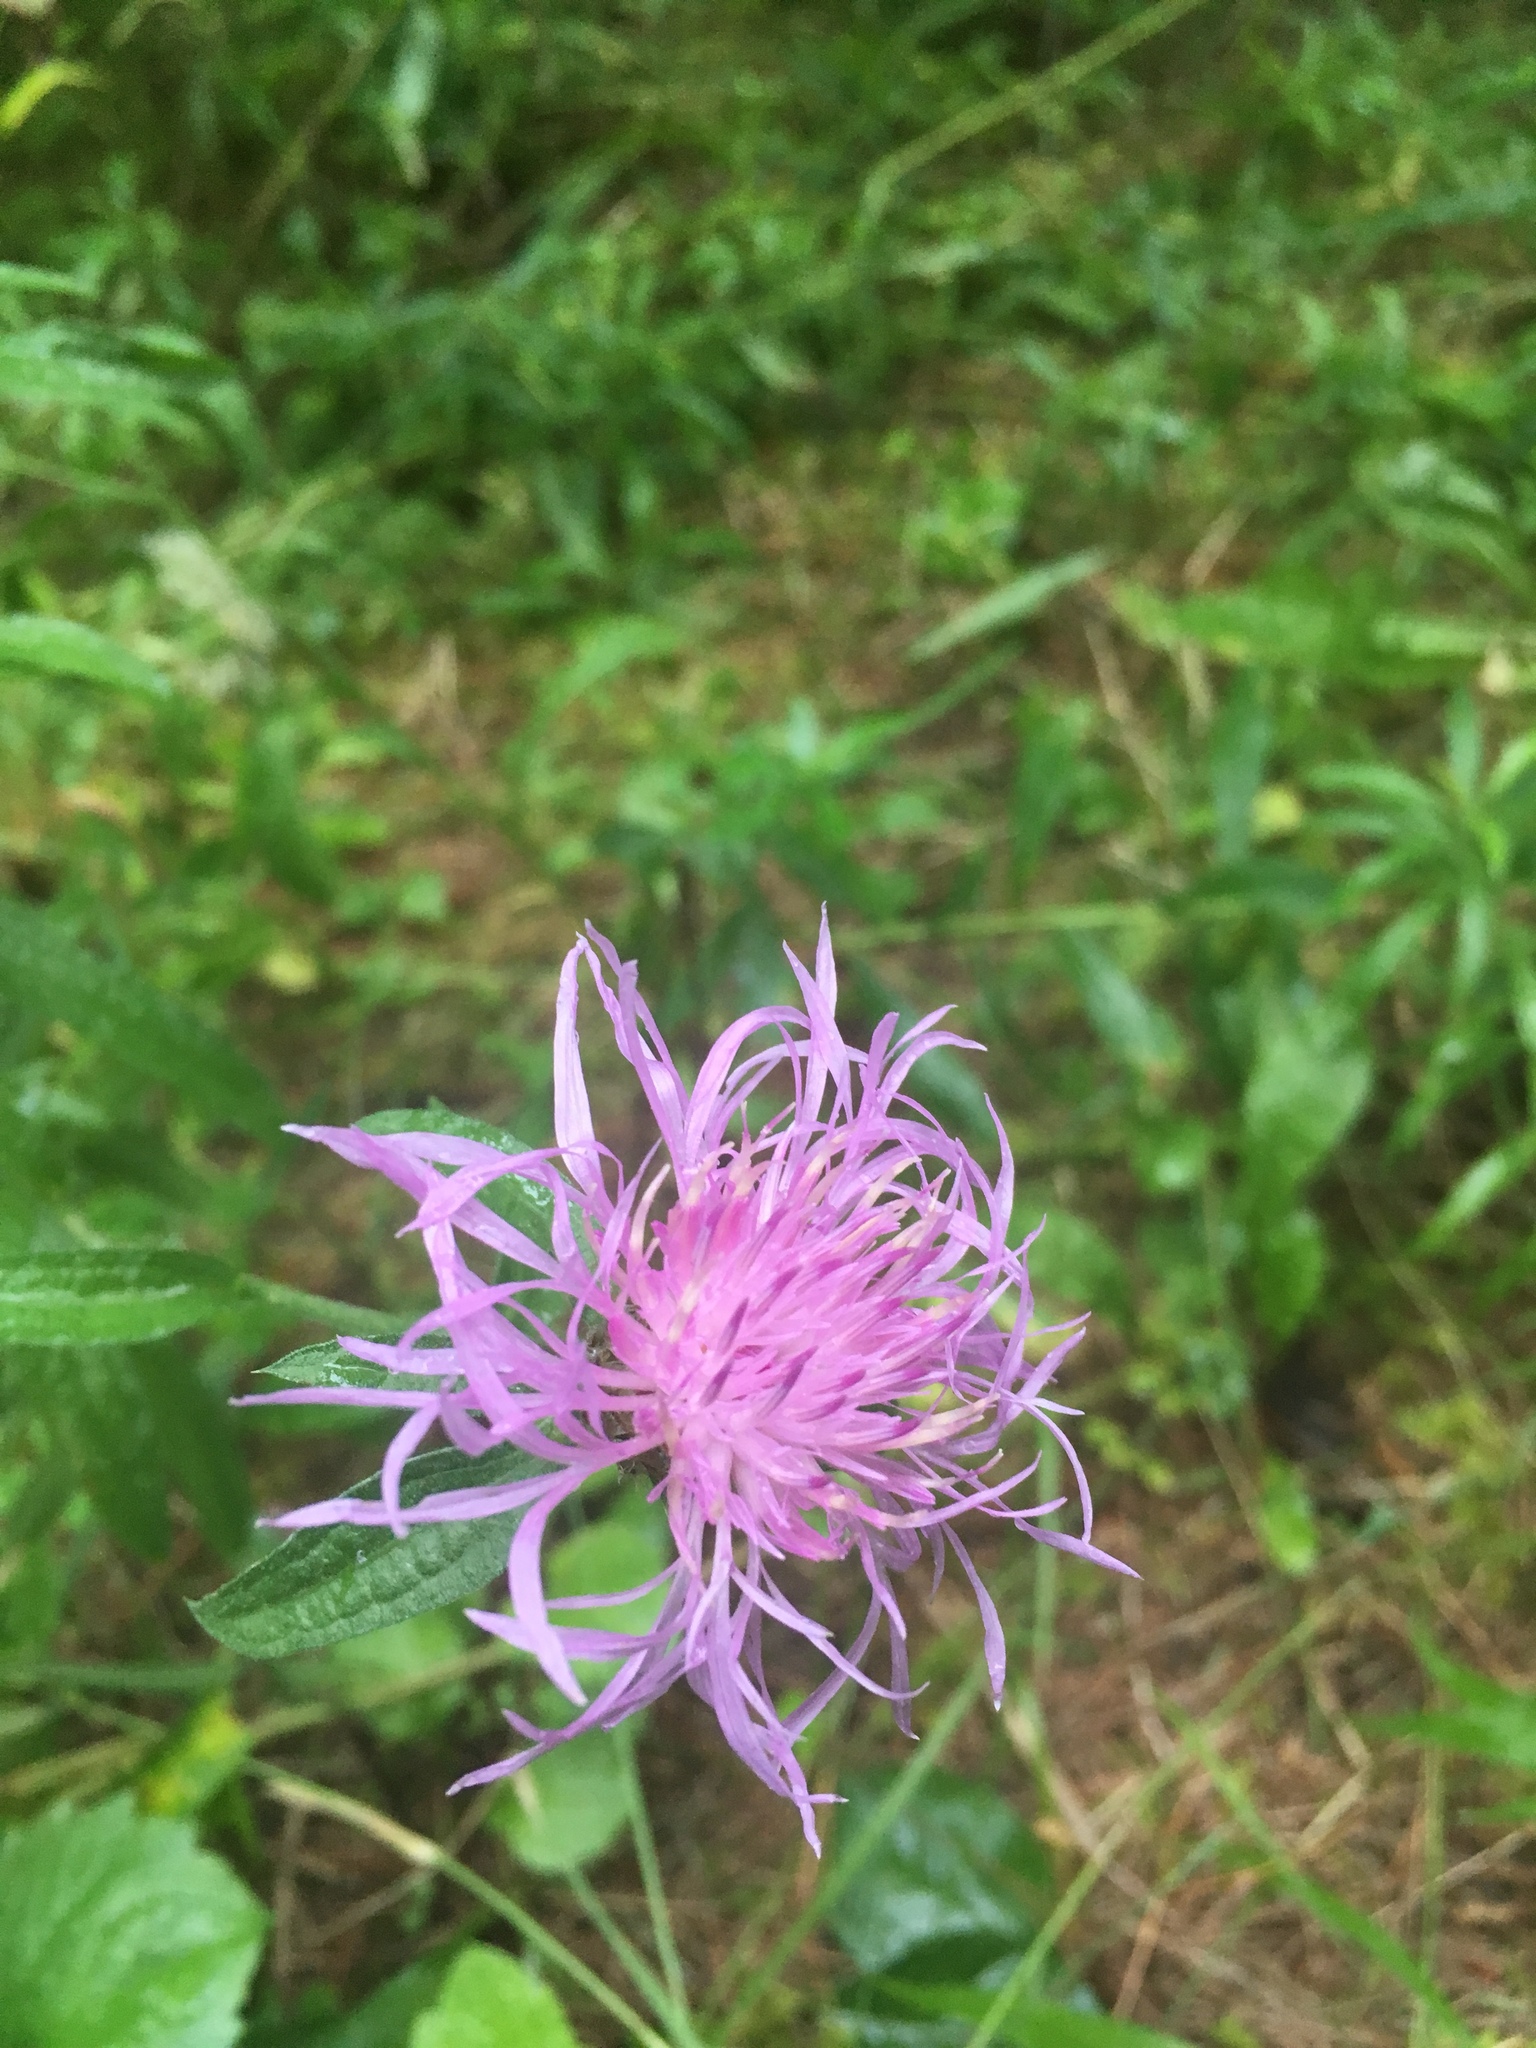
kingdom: Plantae
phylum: Tracheophyta
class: Magnoliopsida
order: Asterales
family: Asteraceae
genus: Centaurea
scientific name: Centaurea jacea
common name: Brown knapweed
